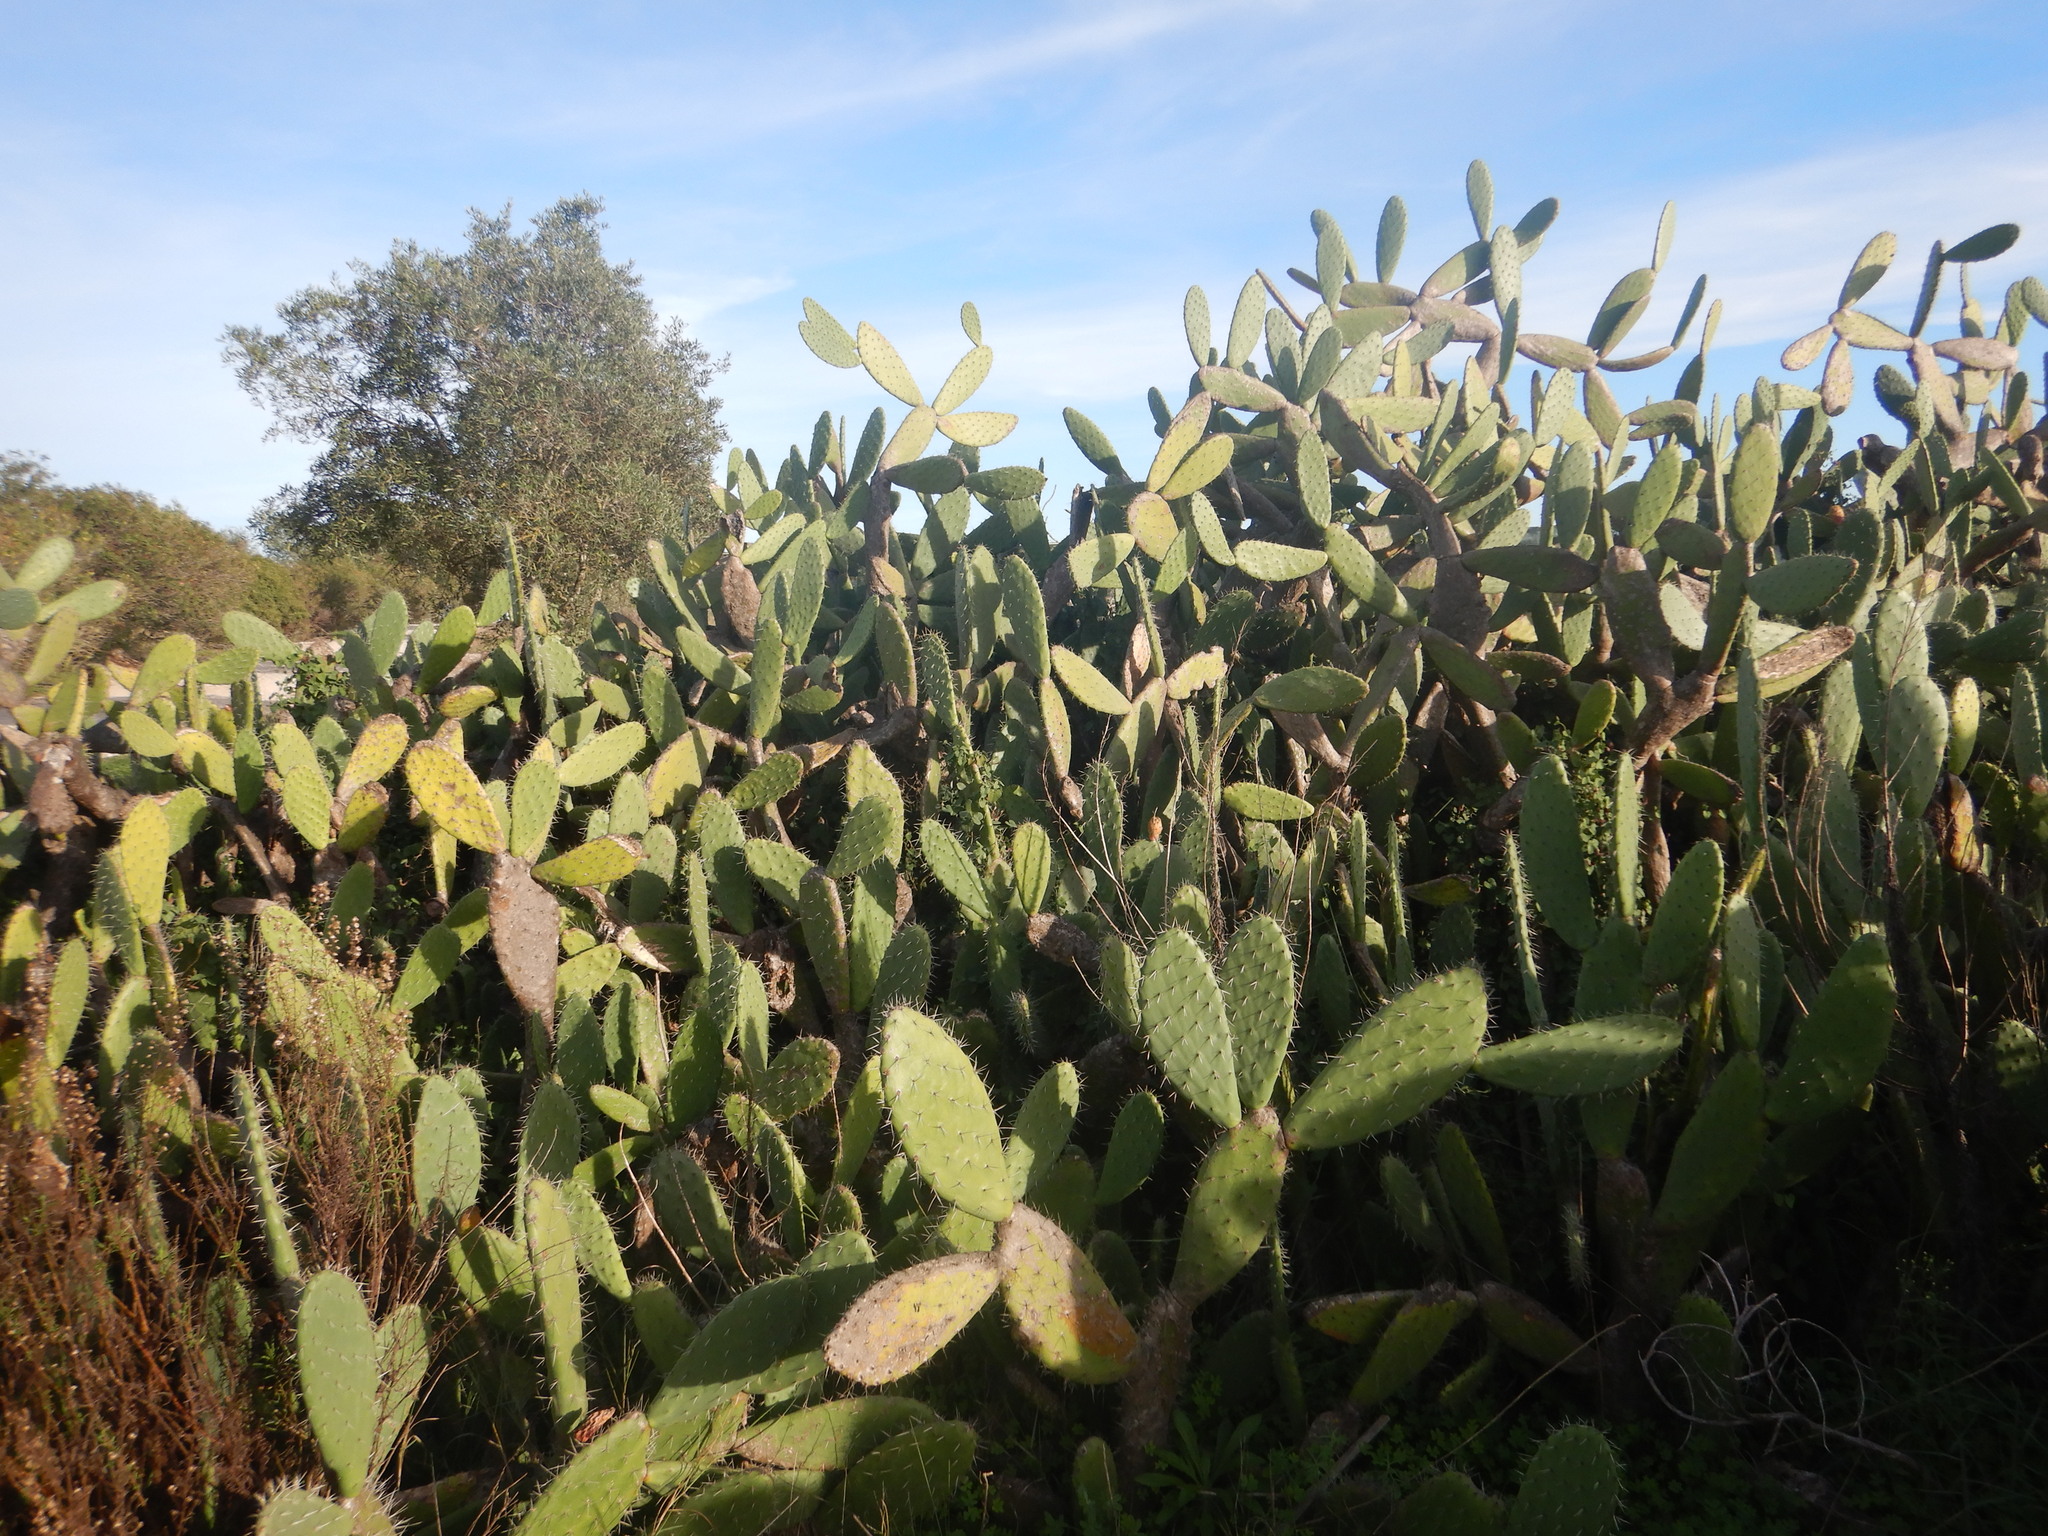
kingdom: Plantae
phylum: Tracheophyta
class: Magnoliopsida
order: Caryophyllales
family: Cactaceae
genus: Opuntia
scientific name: Opuntia ficus-indica
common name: Barbary fig
